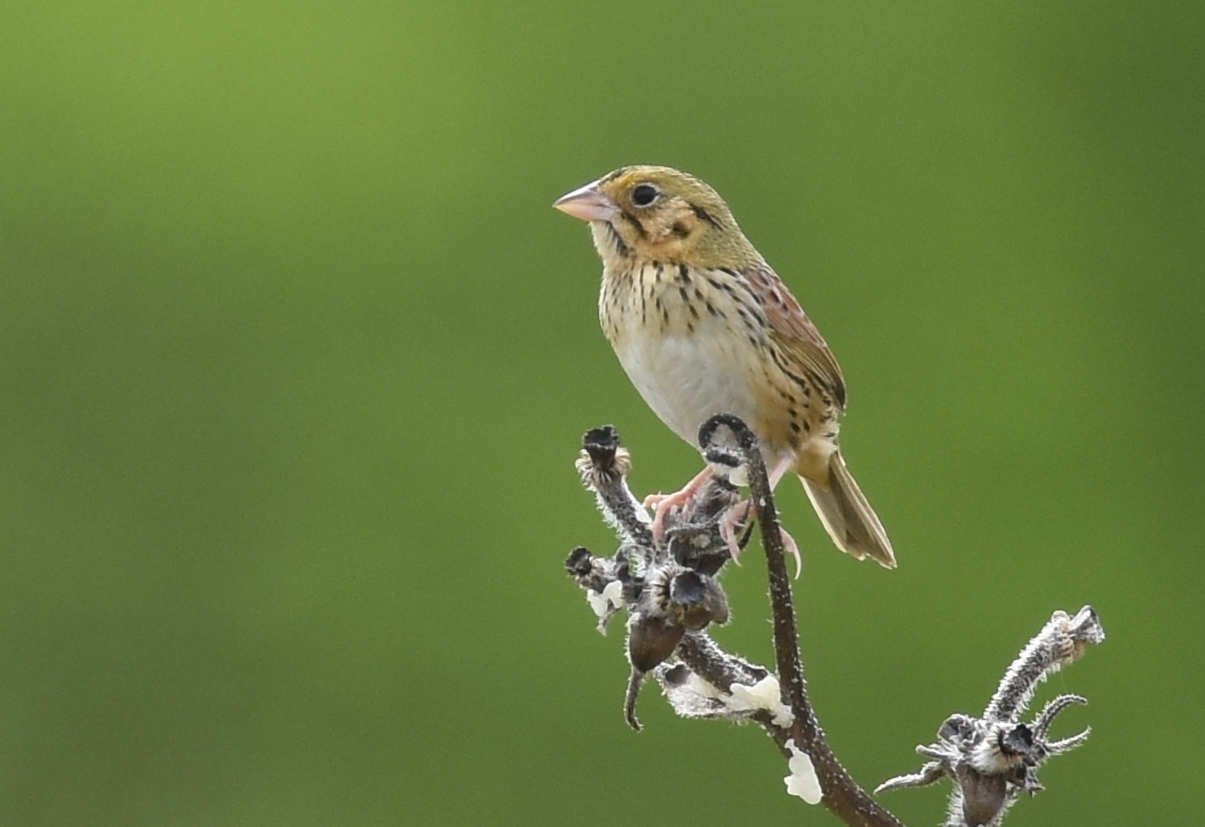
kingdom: Animalia
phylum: Chordata
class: Aves
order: Passeriformes
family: Passerellidae
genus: Centronyx
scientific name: Centronyx henslowii
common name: Henslow's sparrow
